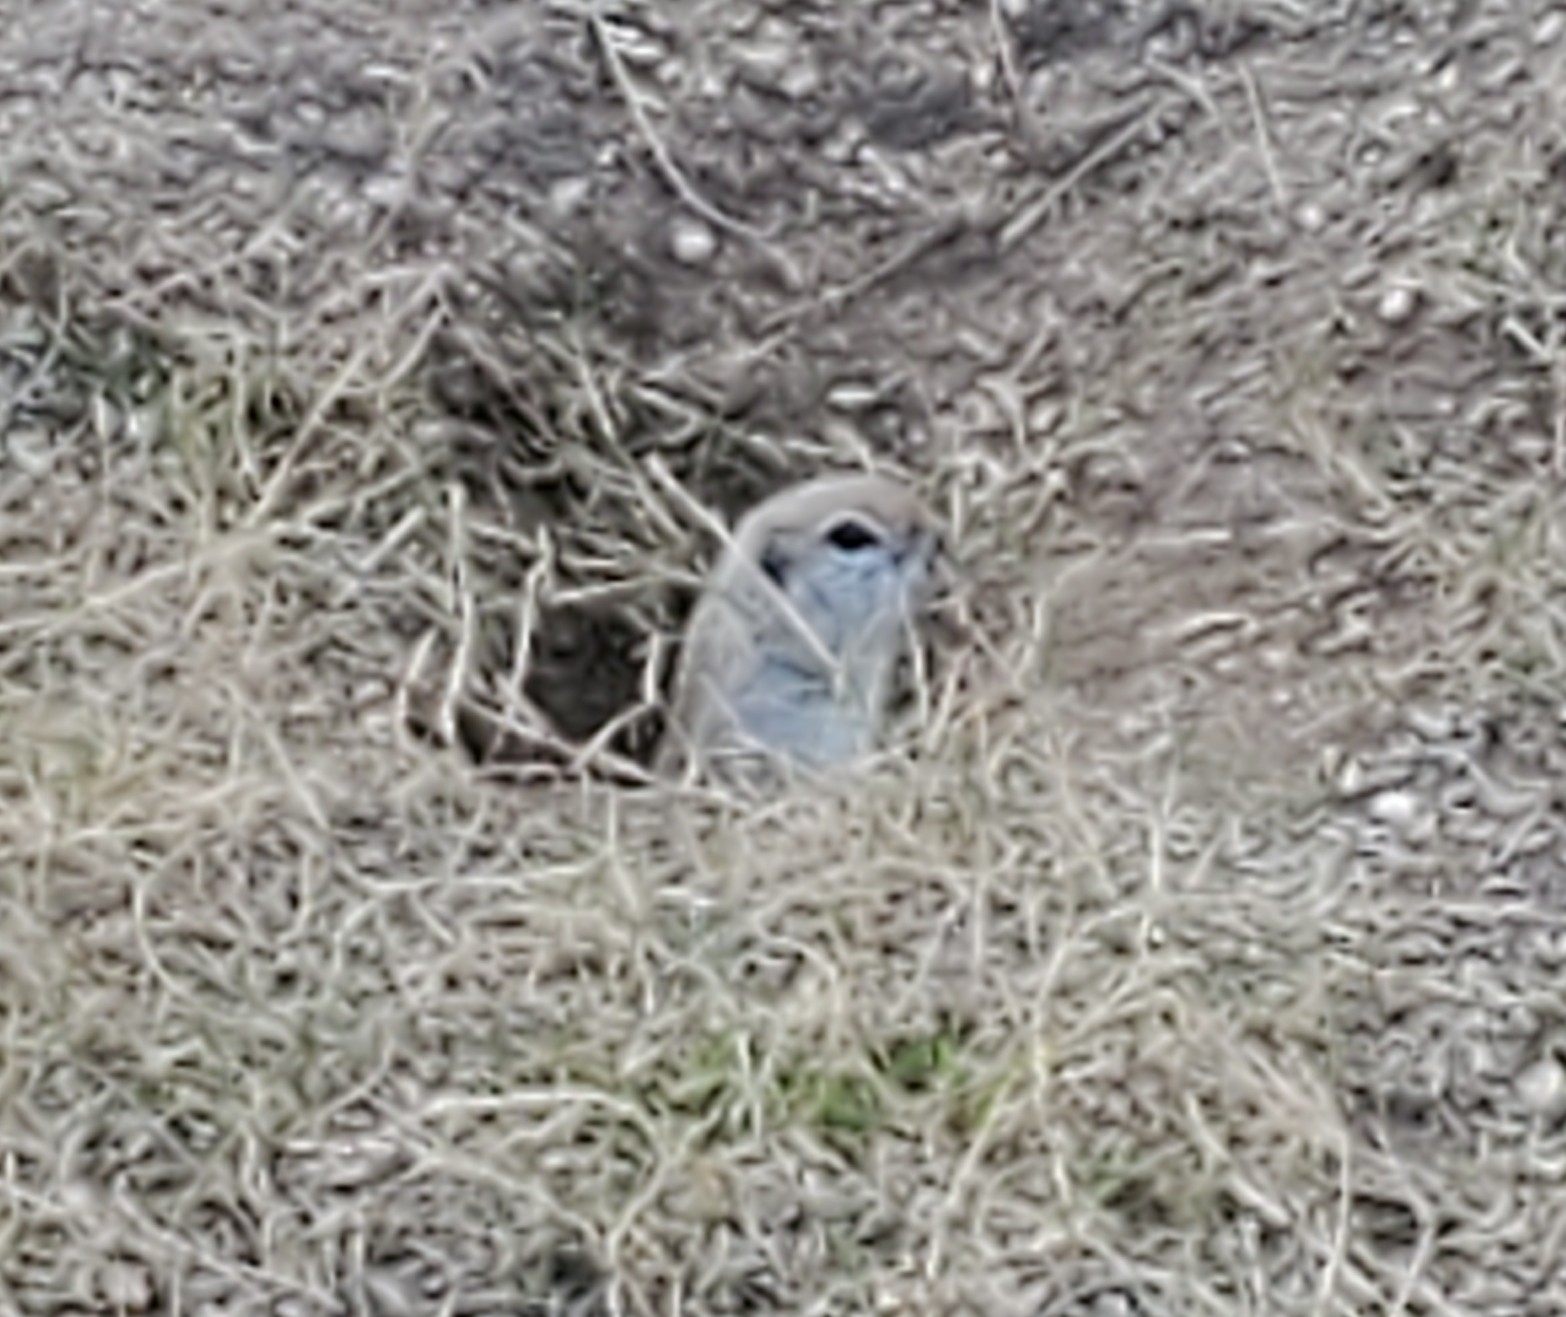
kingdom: Animalia
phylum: Chordata
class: Mammalia
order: Rodentia
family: Sciuridae
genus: Xerospermophilus
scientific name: Xerospermophilus tereticaudus
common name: Round-tailed ground squirrel
